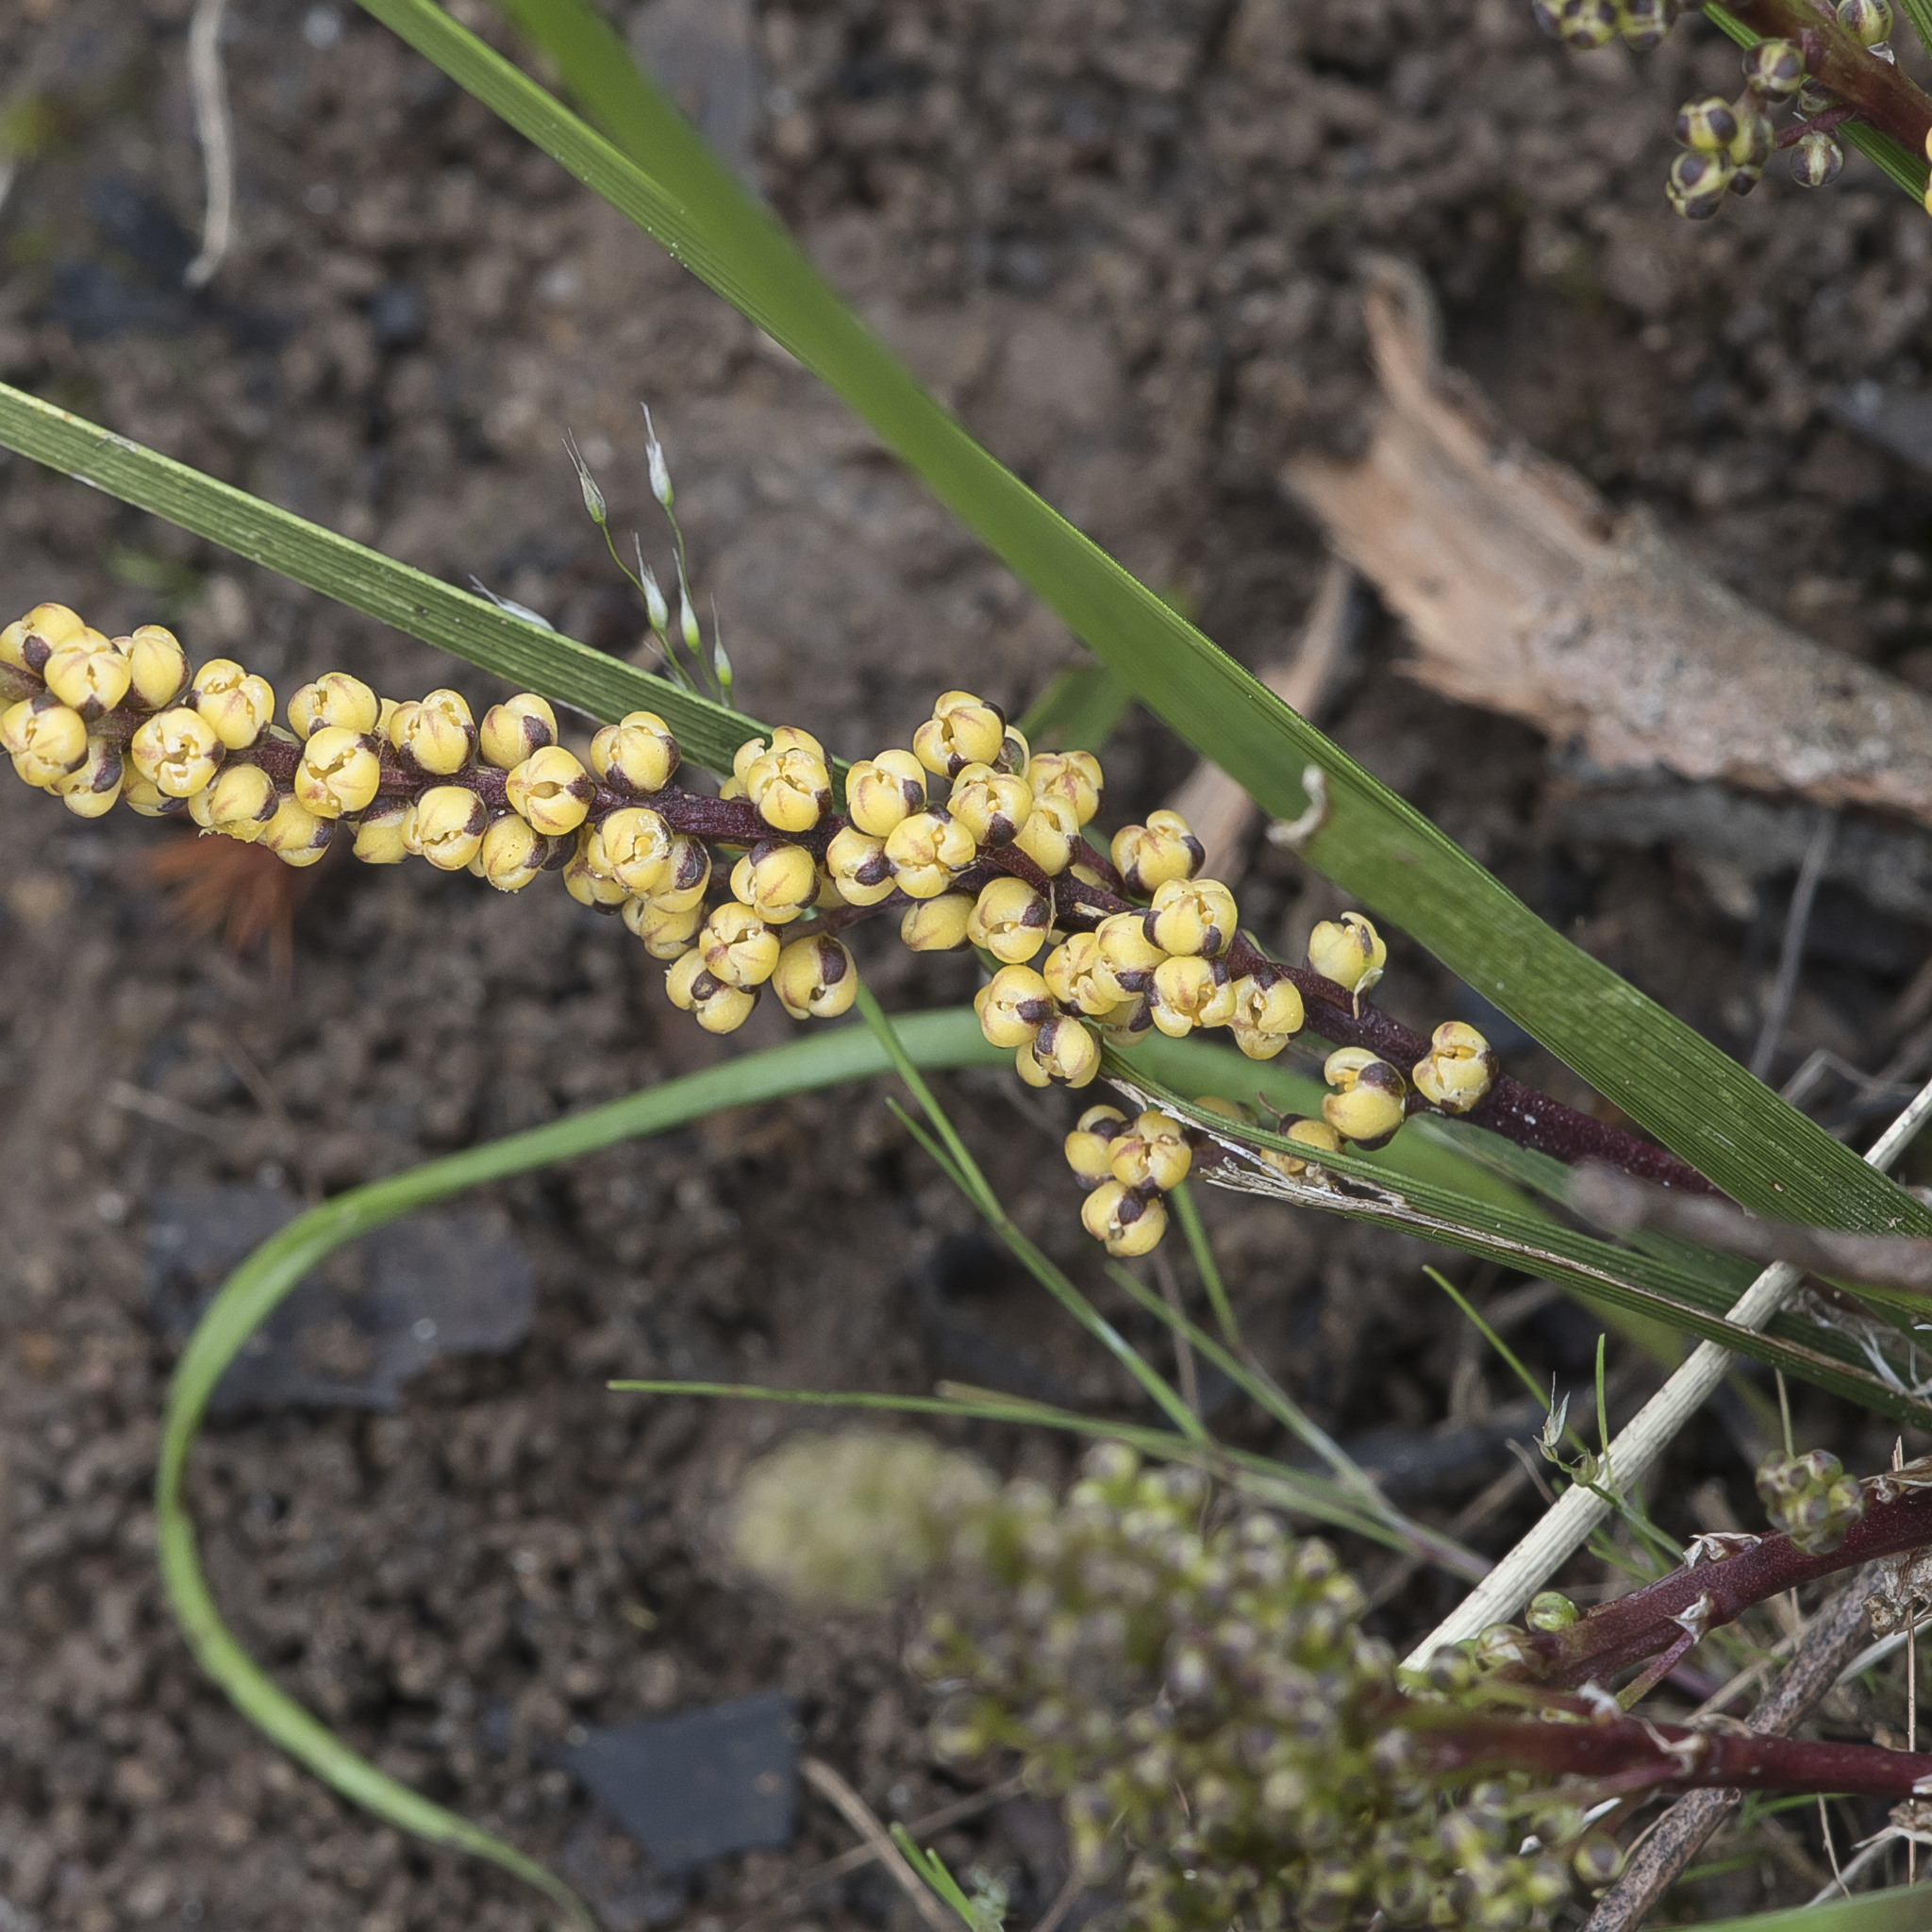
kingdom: Plantae
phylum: Tracheophyta
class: Liliopsida
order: Asparagales
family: Asparagaceae
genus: Lomandra
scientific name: Lomandra sororia
